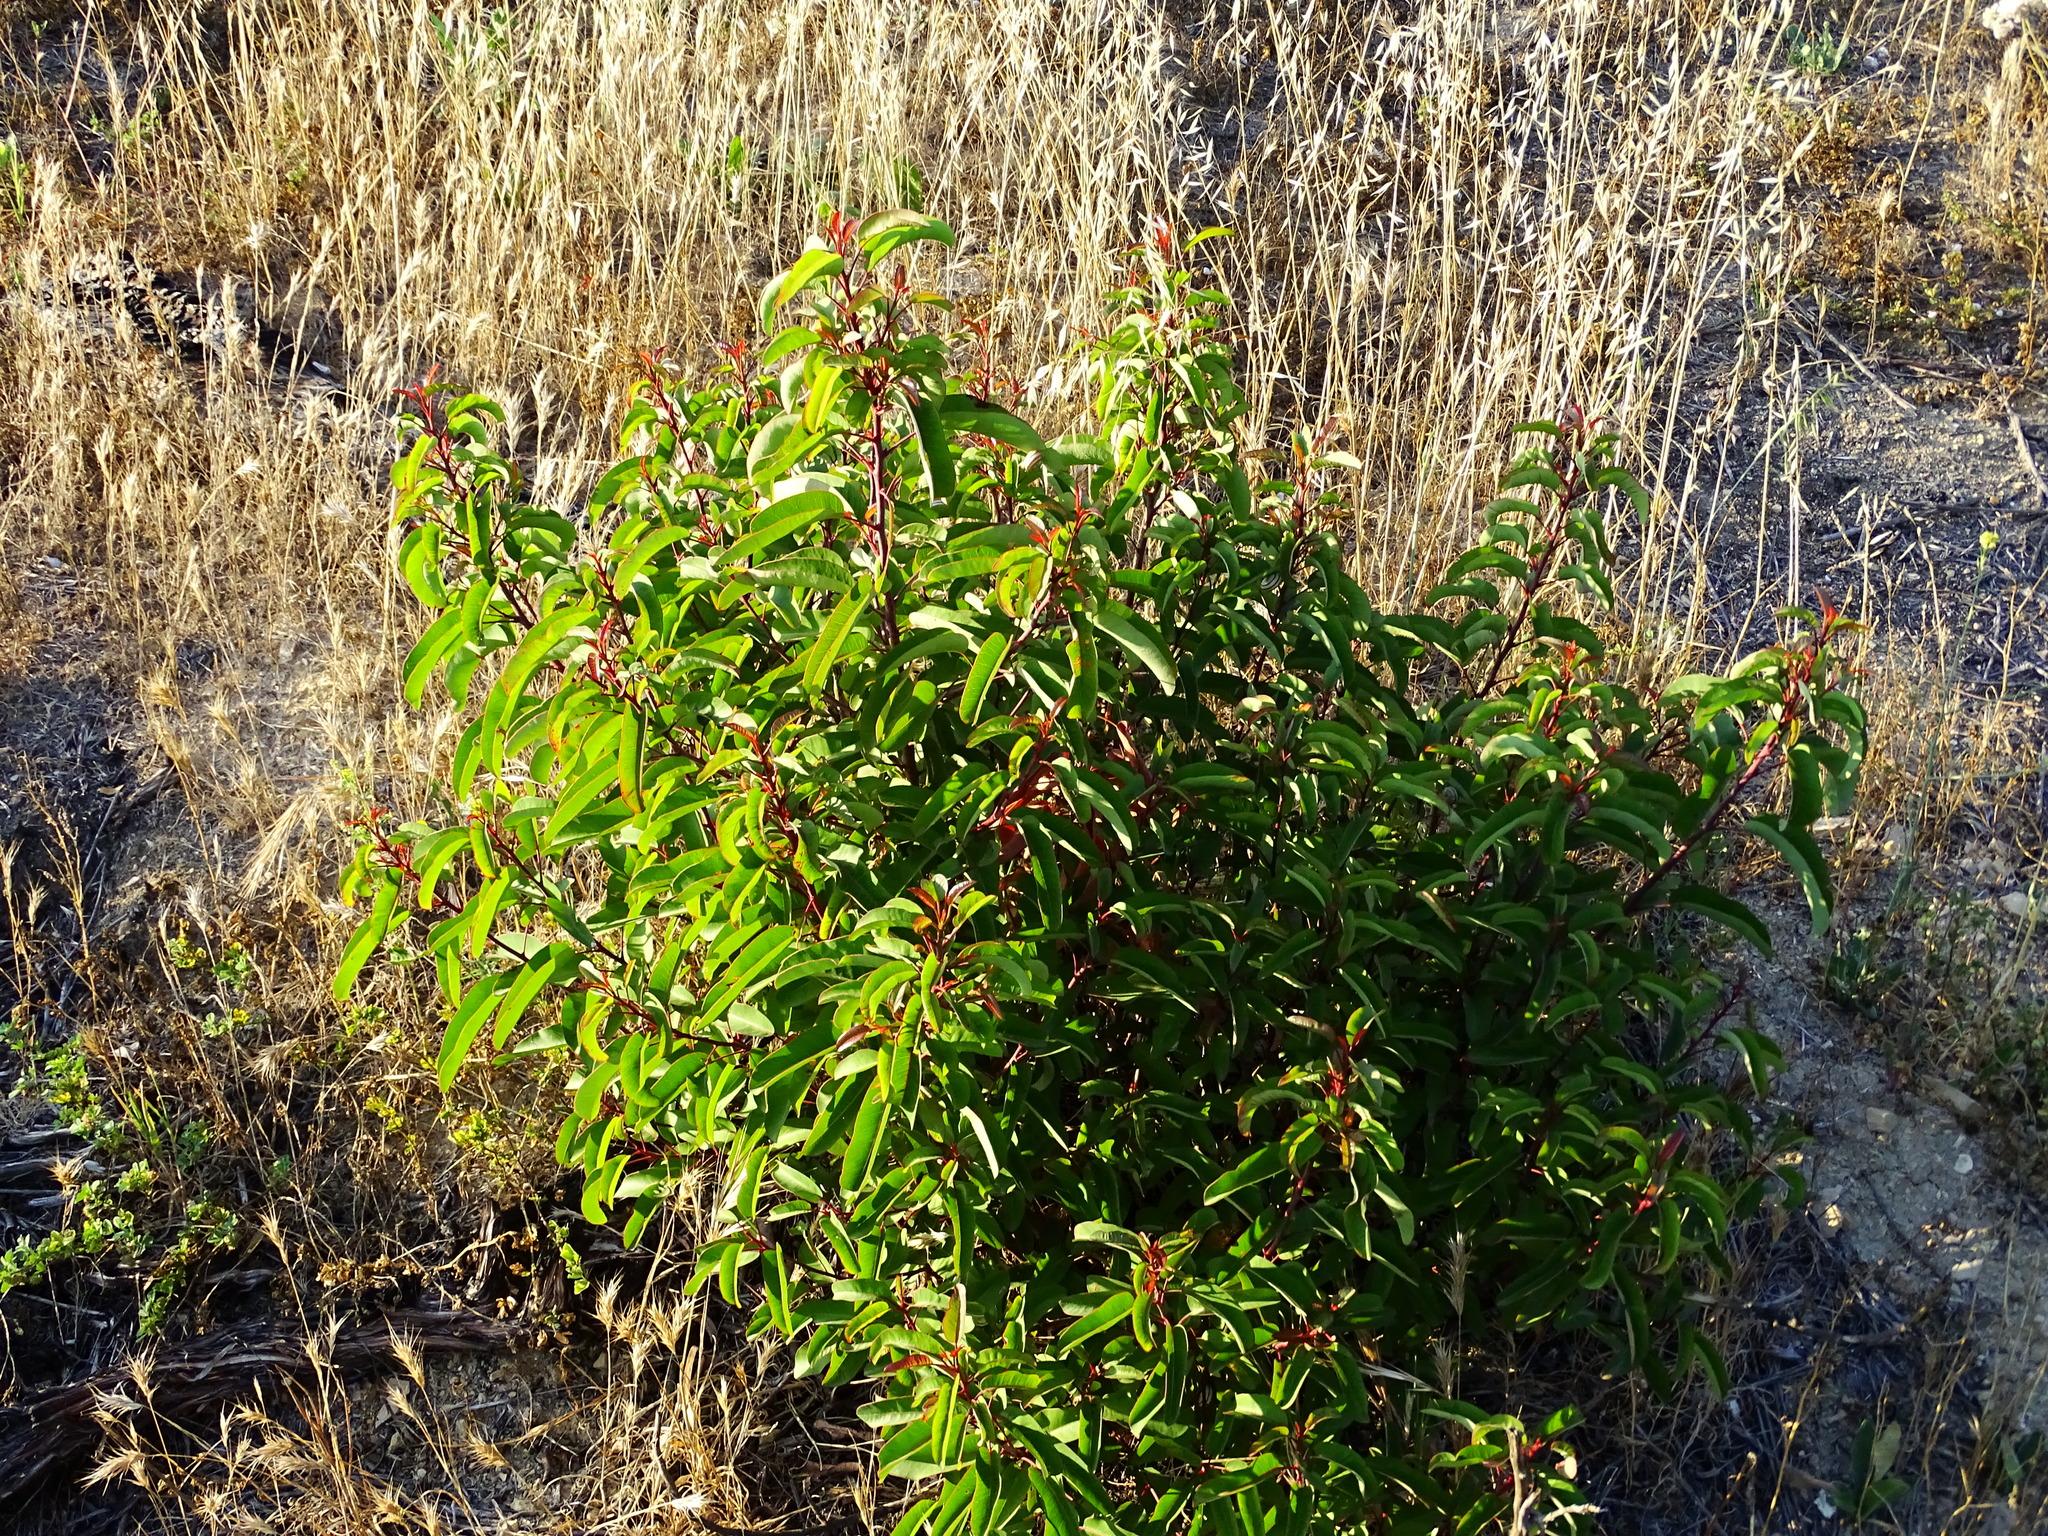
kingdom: Plantae
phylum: Tracheophyta
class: Magnoliopsida
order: Sapindales
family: Anacardiaceae
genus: Malosma
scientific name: Malosma laurina
